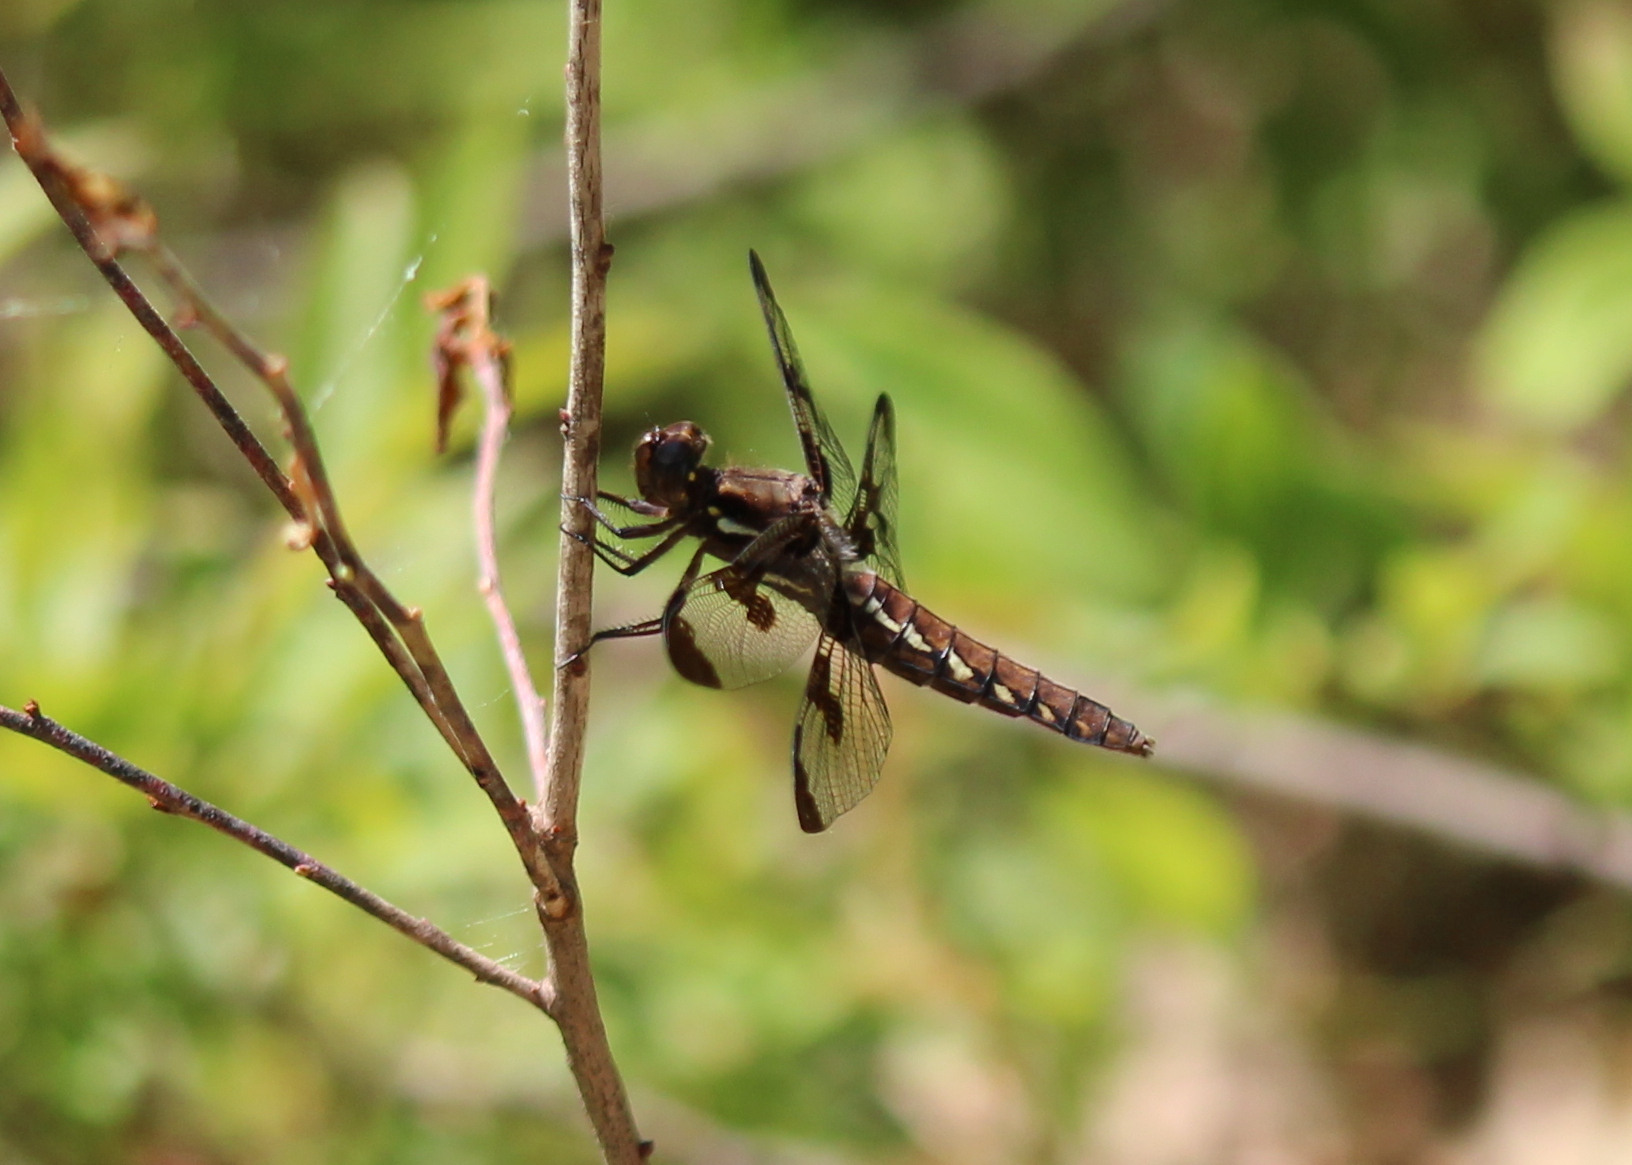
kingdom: Animalia
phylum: Arthropoda
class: Insecta
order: Odonata
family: Libellulidae
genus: Plathemis
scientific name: Plathemis lydia
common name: Common whitetail
